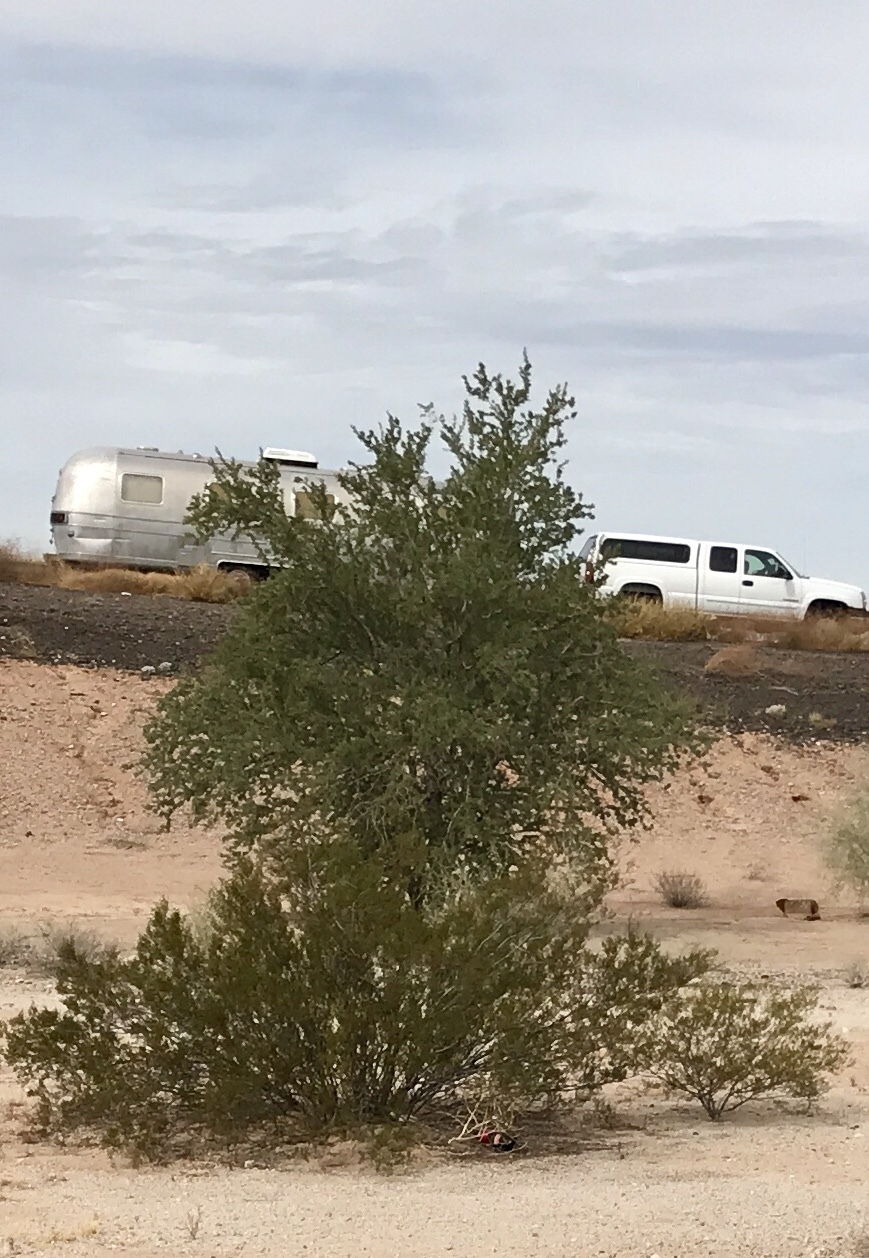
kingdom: Plantae
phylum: Tracheophyta
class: Magnoliopsida
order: Zygophyllales
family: Zygophyllaceae
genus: Larrea
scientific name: Larrea tridentata
